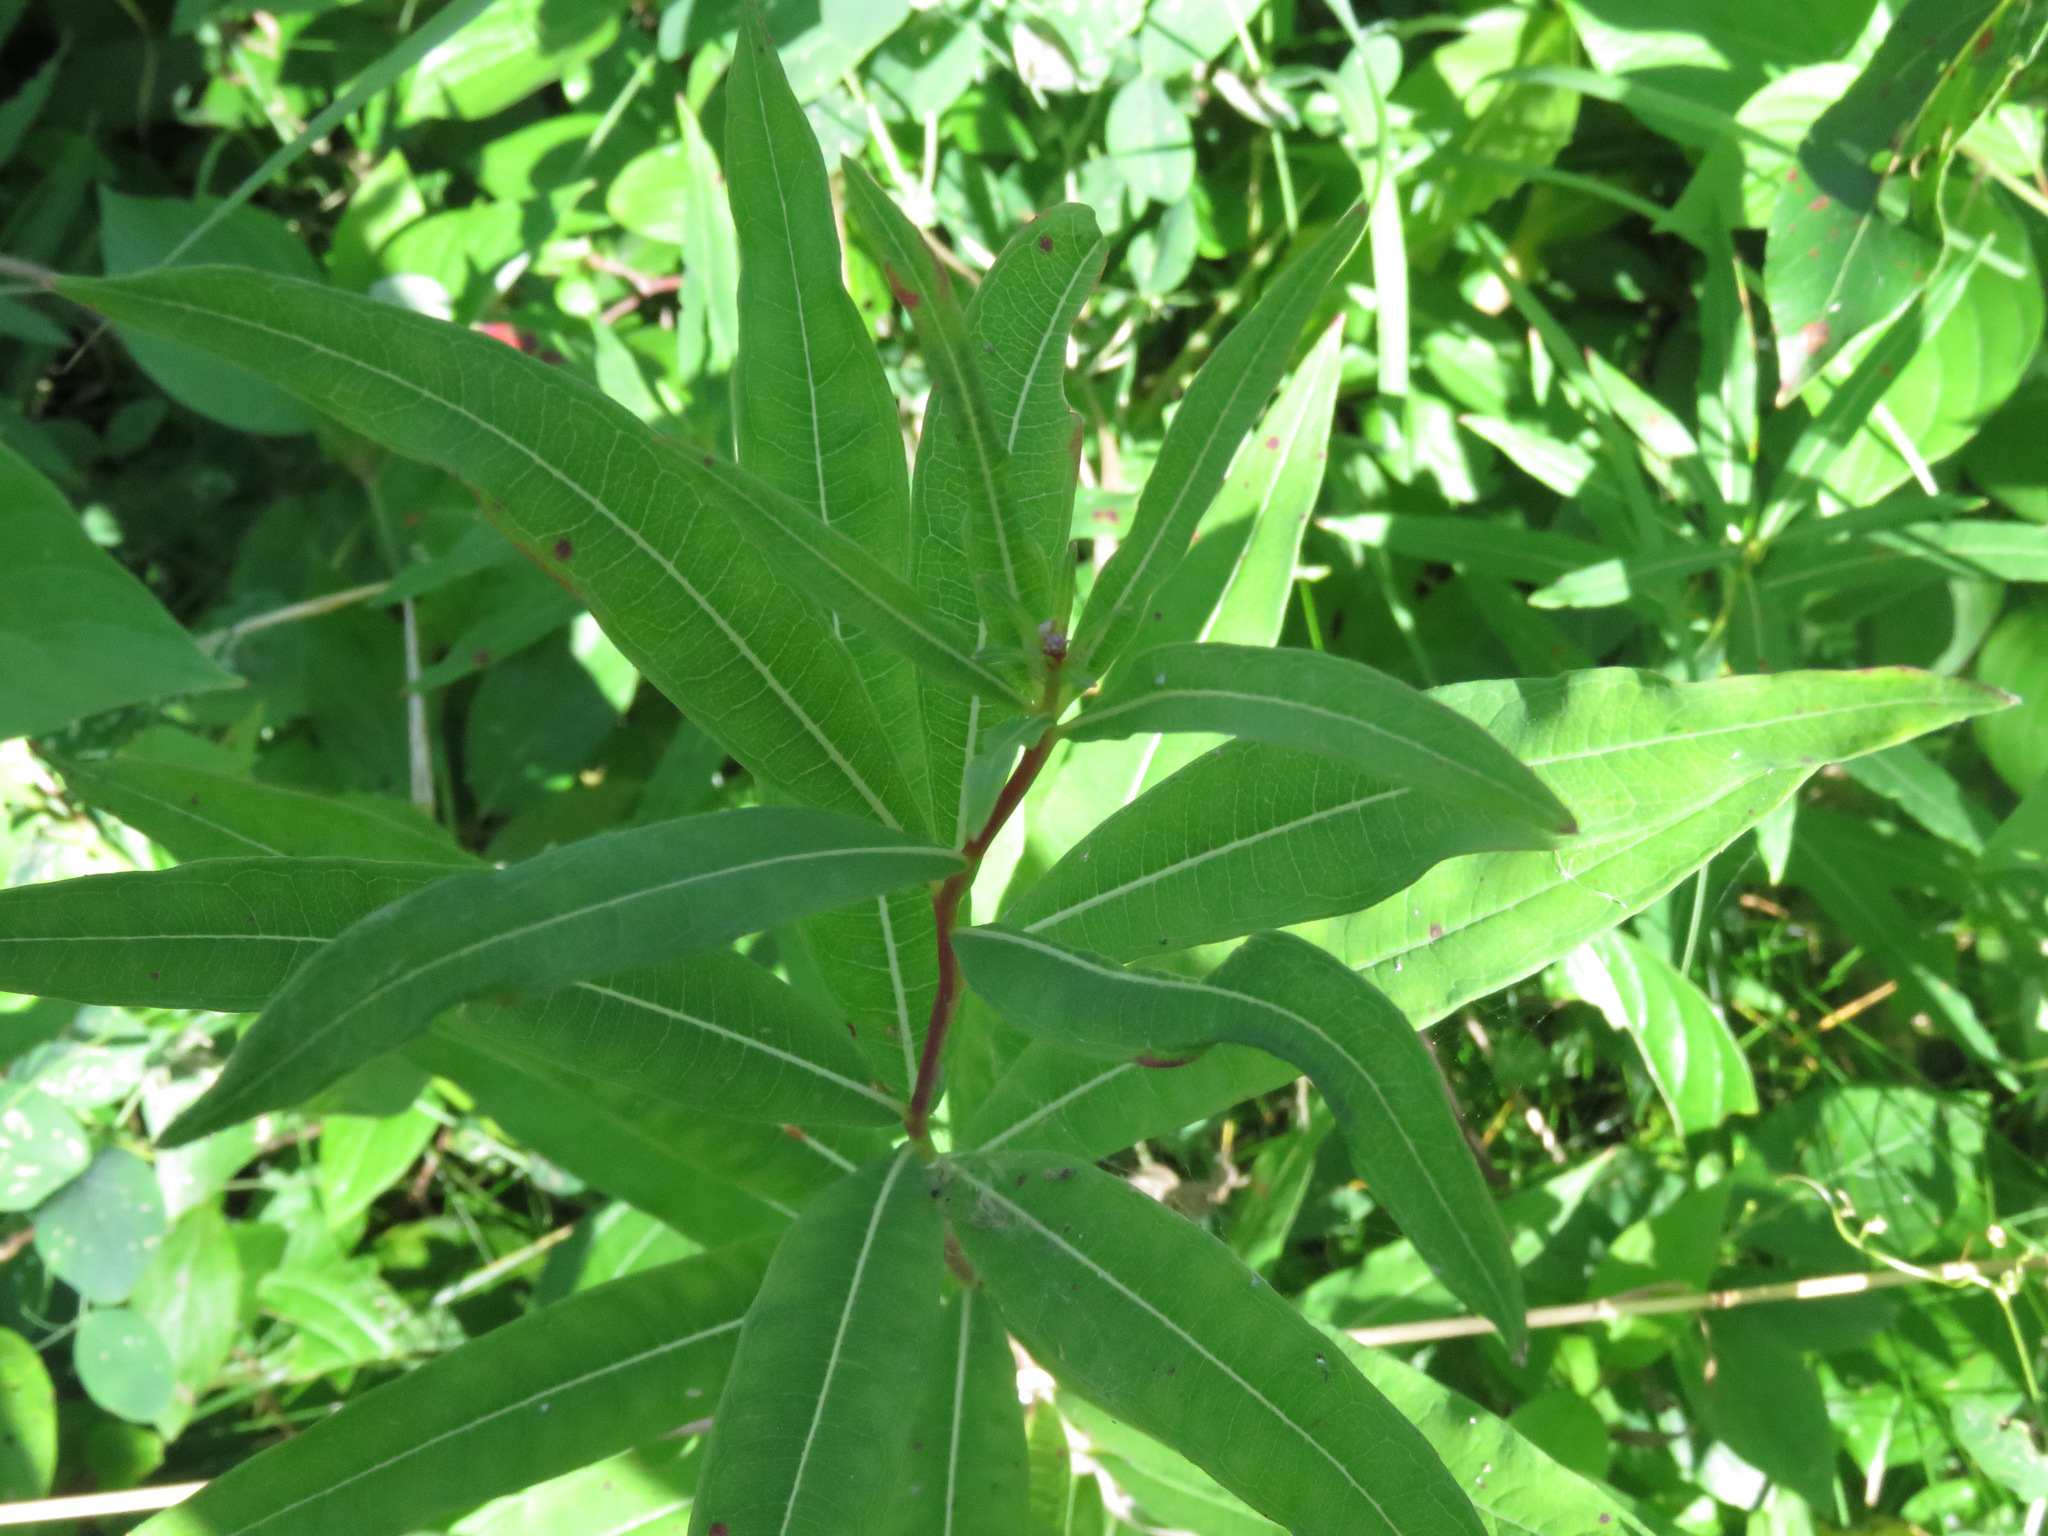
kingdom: Plantae
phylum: Tracheophyta
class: Magnoliopsida
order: Myrtales
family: Onagraceae
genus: Chamaenerion
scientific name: Chamaenerion angustifolium
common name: Fireweed
